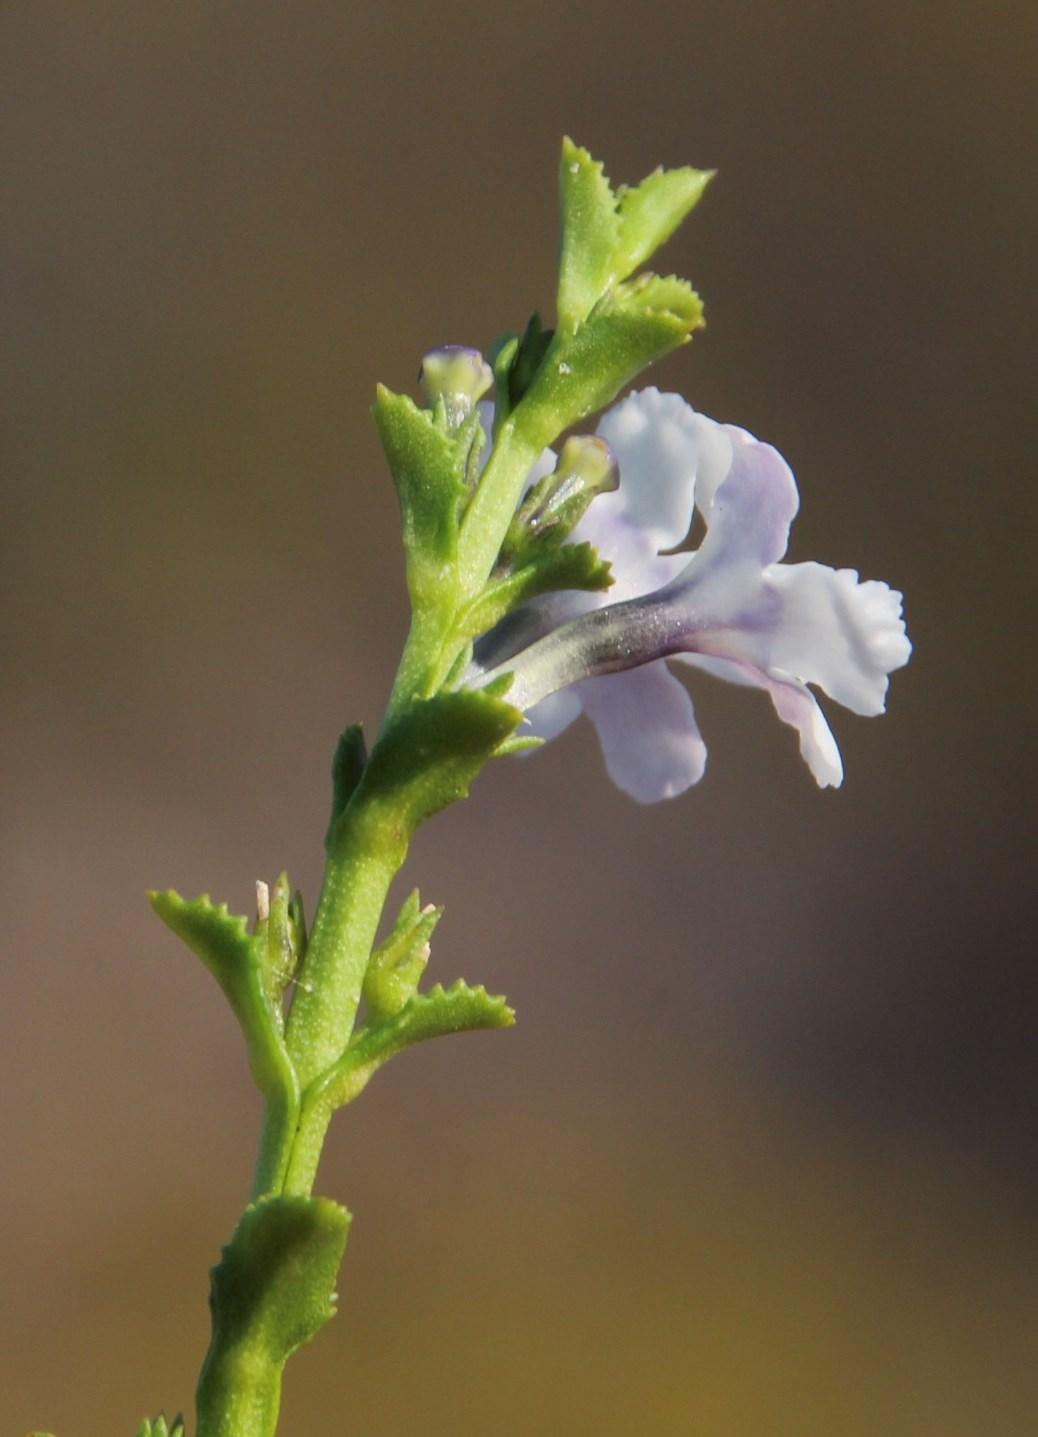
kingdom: Plantae
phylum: Tracheophyta
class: Magnoliopsida
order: Lamiales
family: Scrophulariaceae
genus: Oftia
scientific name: Oftia glabra
